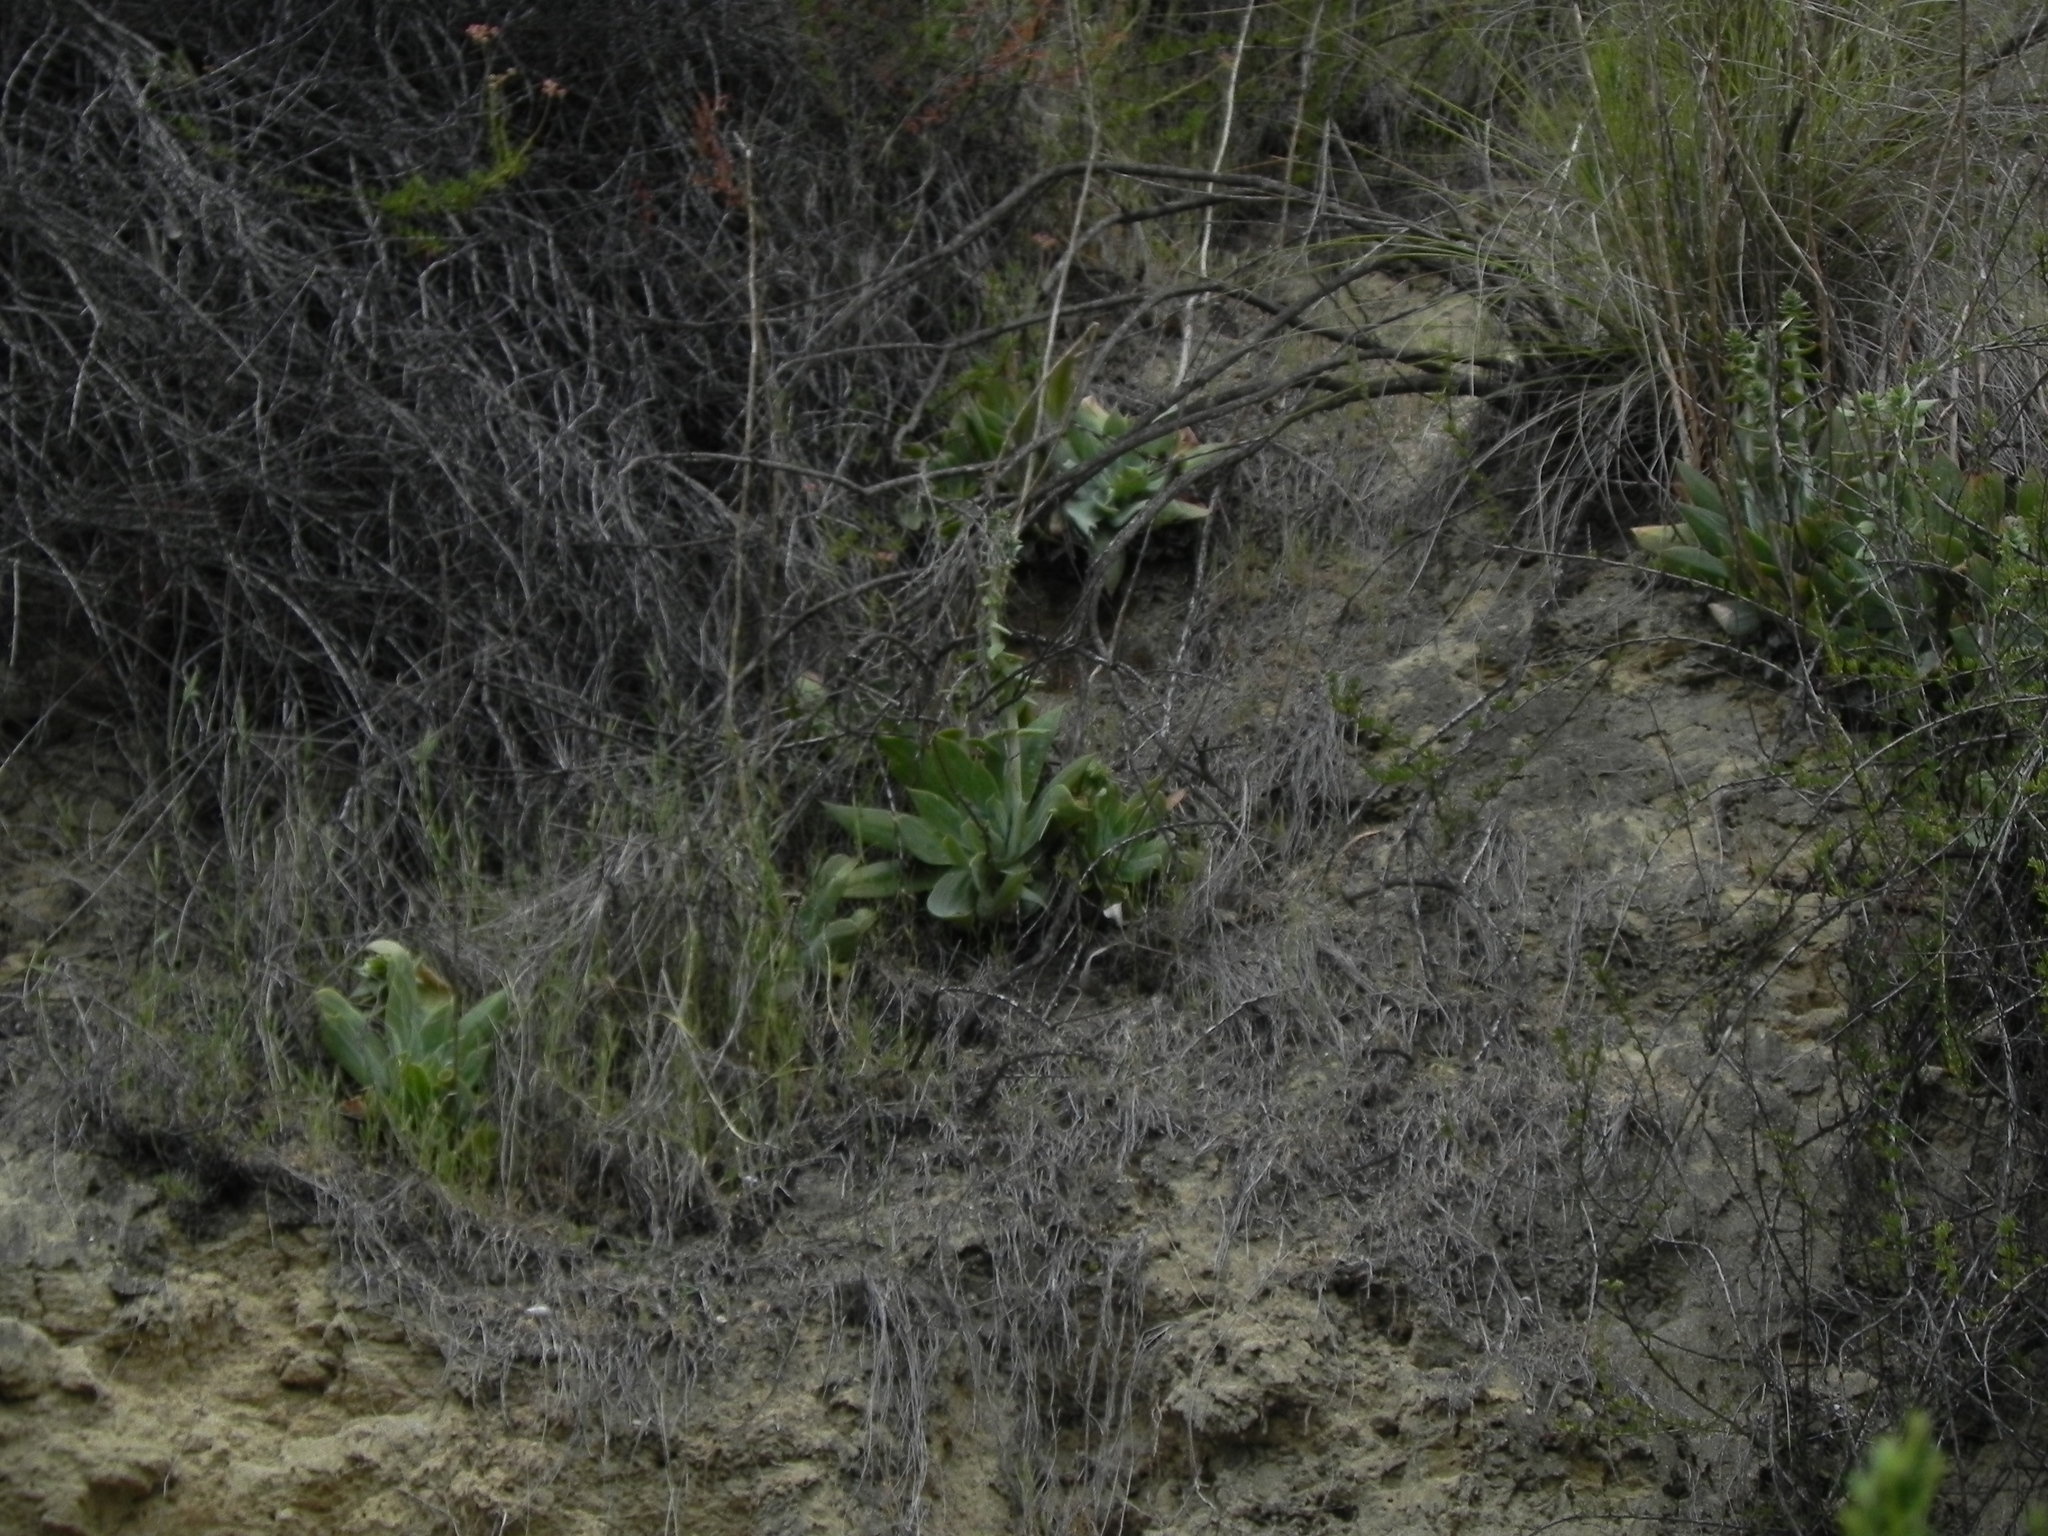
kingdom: Plantae
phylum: Tracheophyta
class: Magnoliopsida
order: Saxifragales
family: Crassulaceae
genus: Dudleya
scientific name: Dudleya pulverulenta
